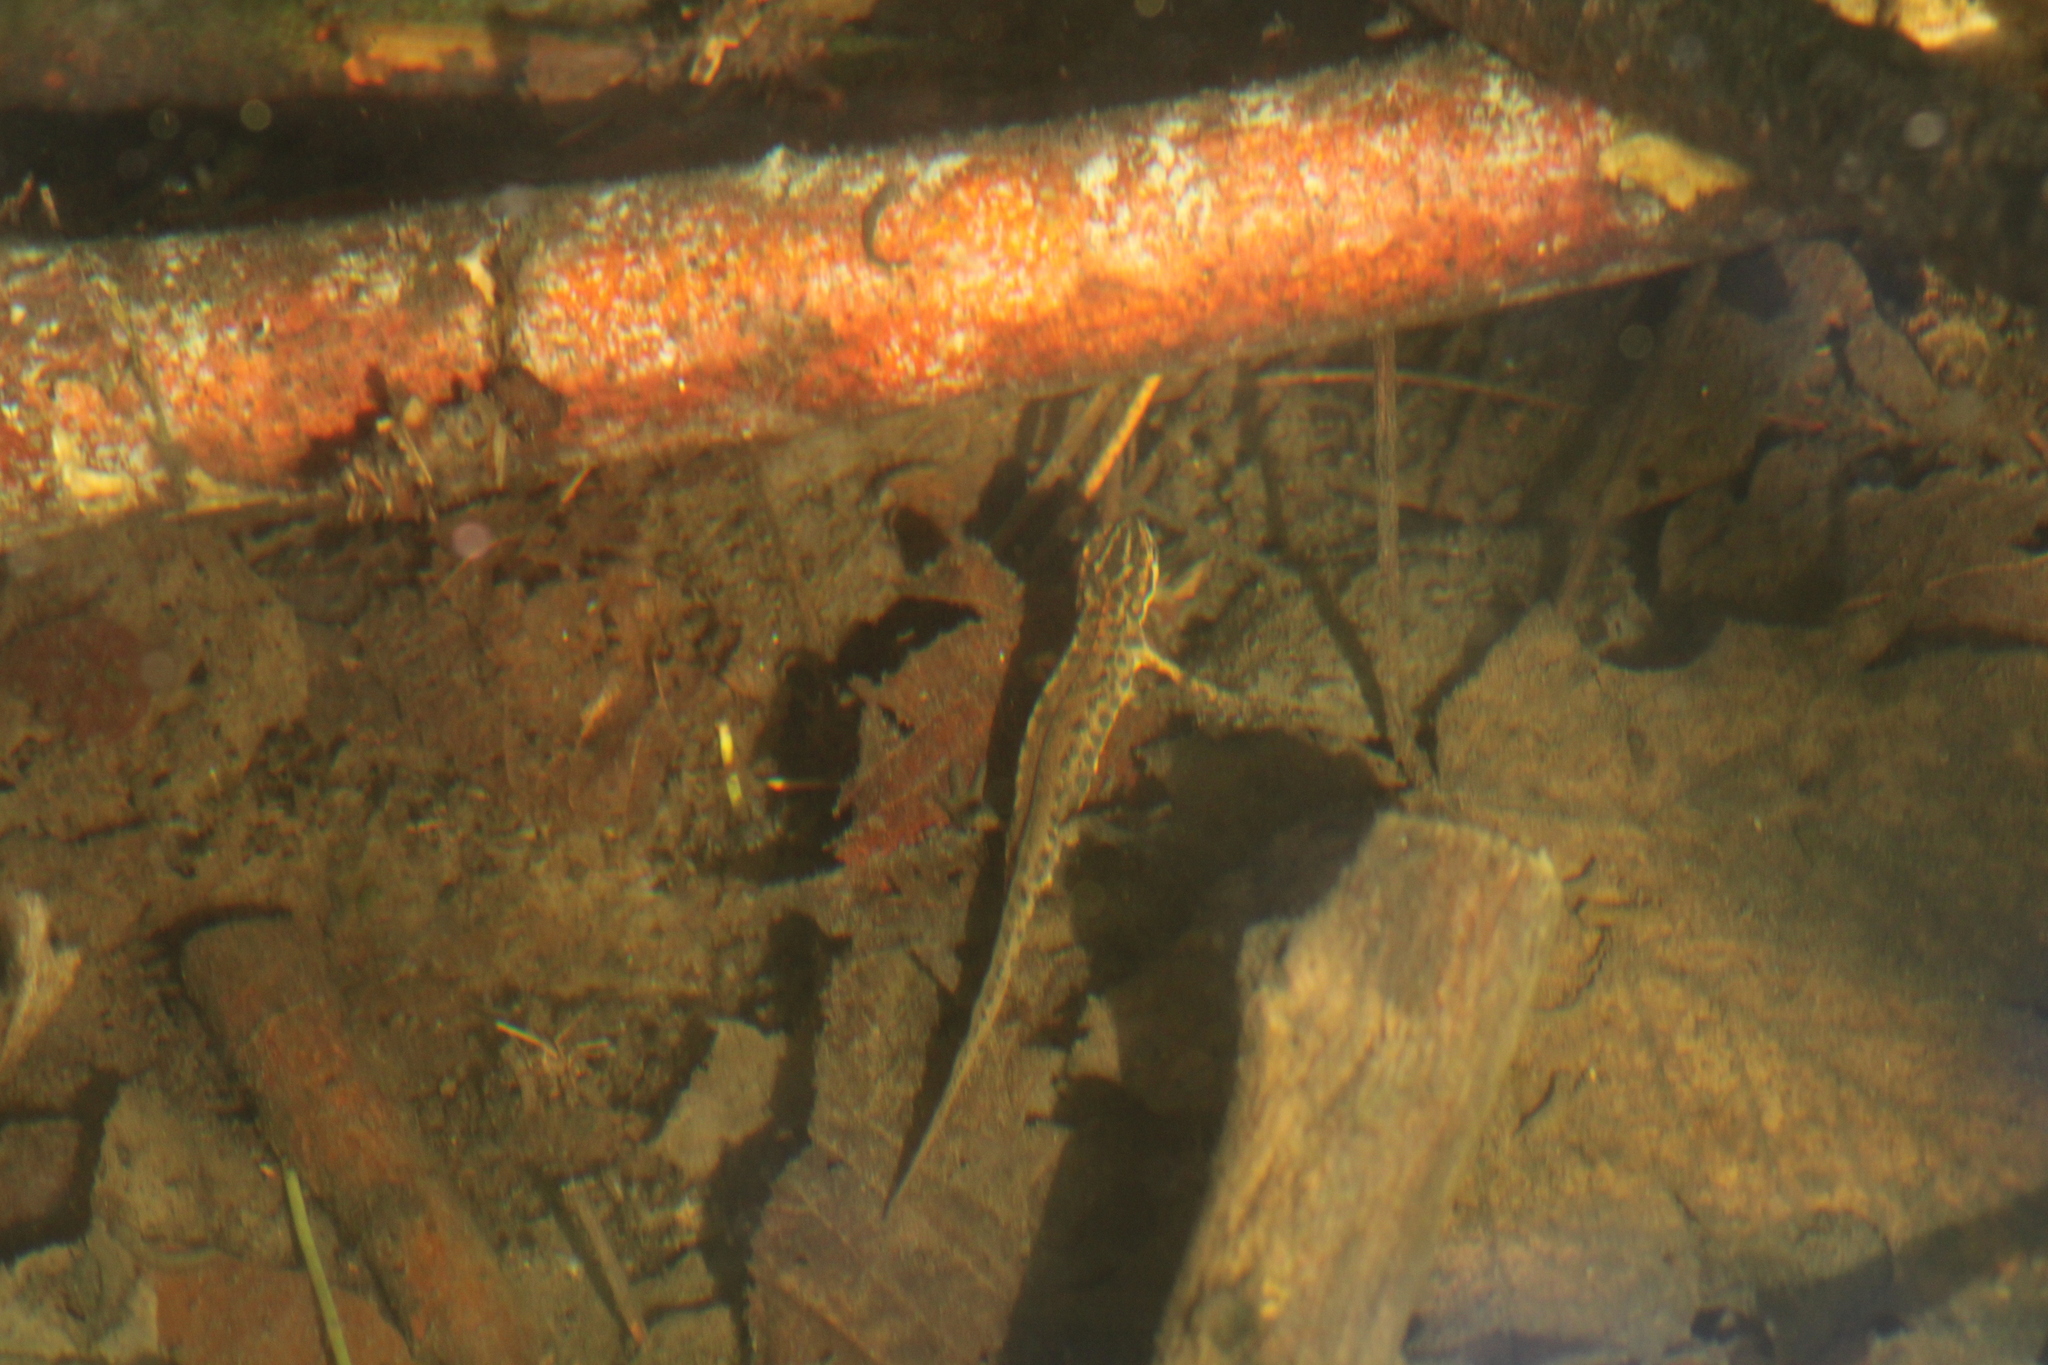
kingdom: Animalia
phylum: Chordata
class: Amphibia
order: Caudata
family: Salamandridae
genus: Lissotriton
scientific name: Lissotriton graecus
